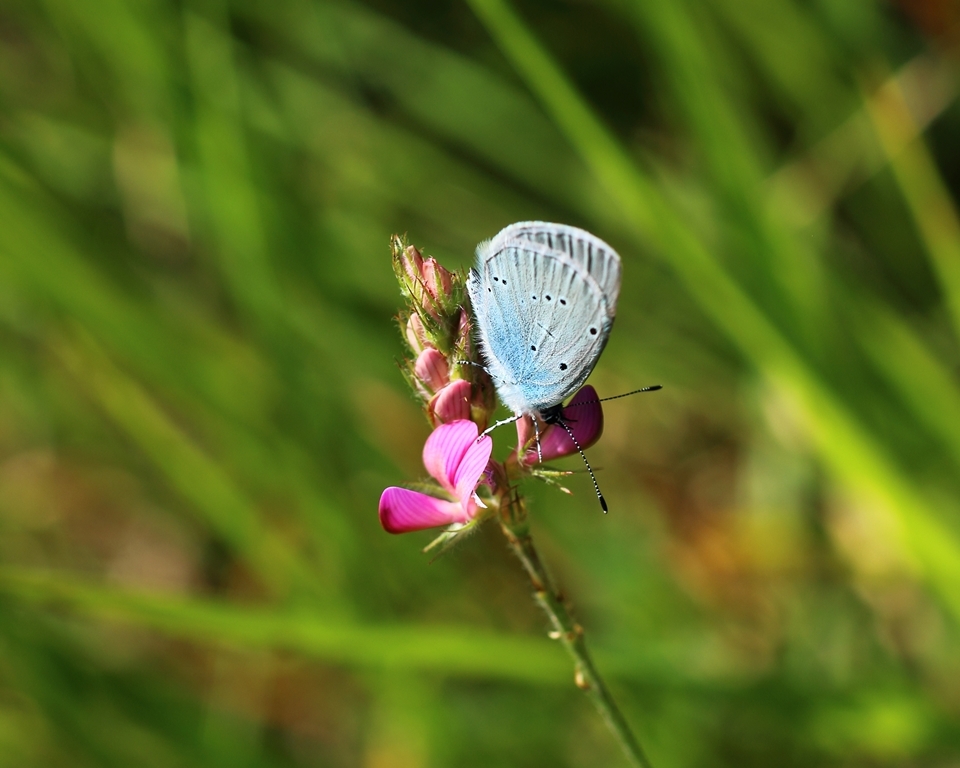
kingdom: Animalia
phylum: Arthropoda
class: Insecta
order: Lepidoptera
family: Lycaenidae
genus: Glaucopsyche
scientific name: Glaucopsyche alexis
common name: Green-underside blue
